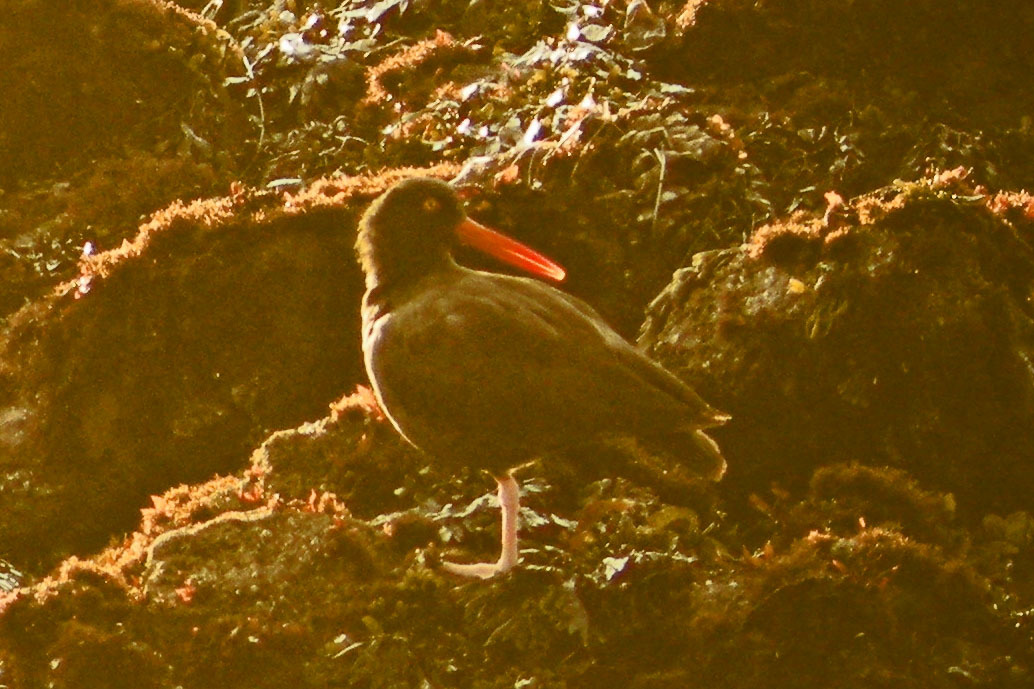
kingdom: Animalia
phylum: Chordata
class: Aves
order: Charadriiformes
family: Haematopodidae
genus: Haematopus
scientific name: Haematopus bachmani
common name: Black oystercatcher
